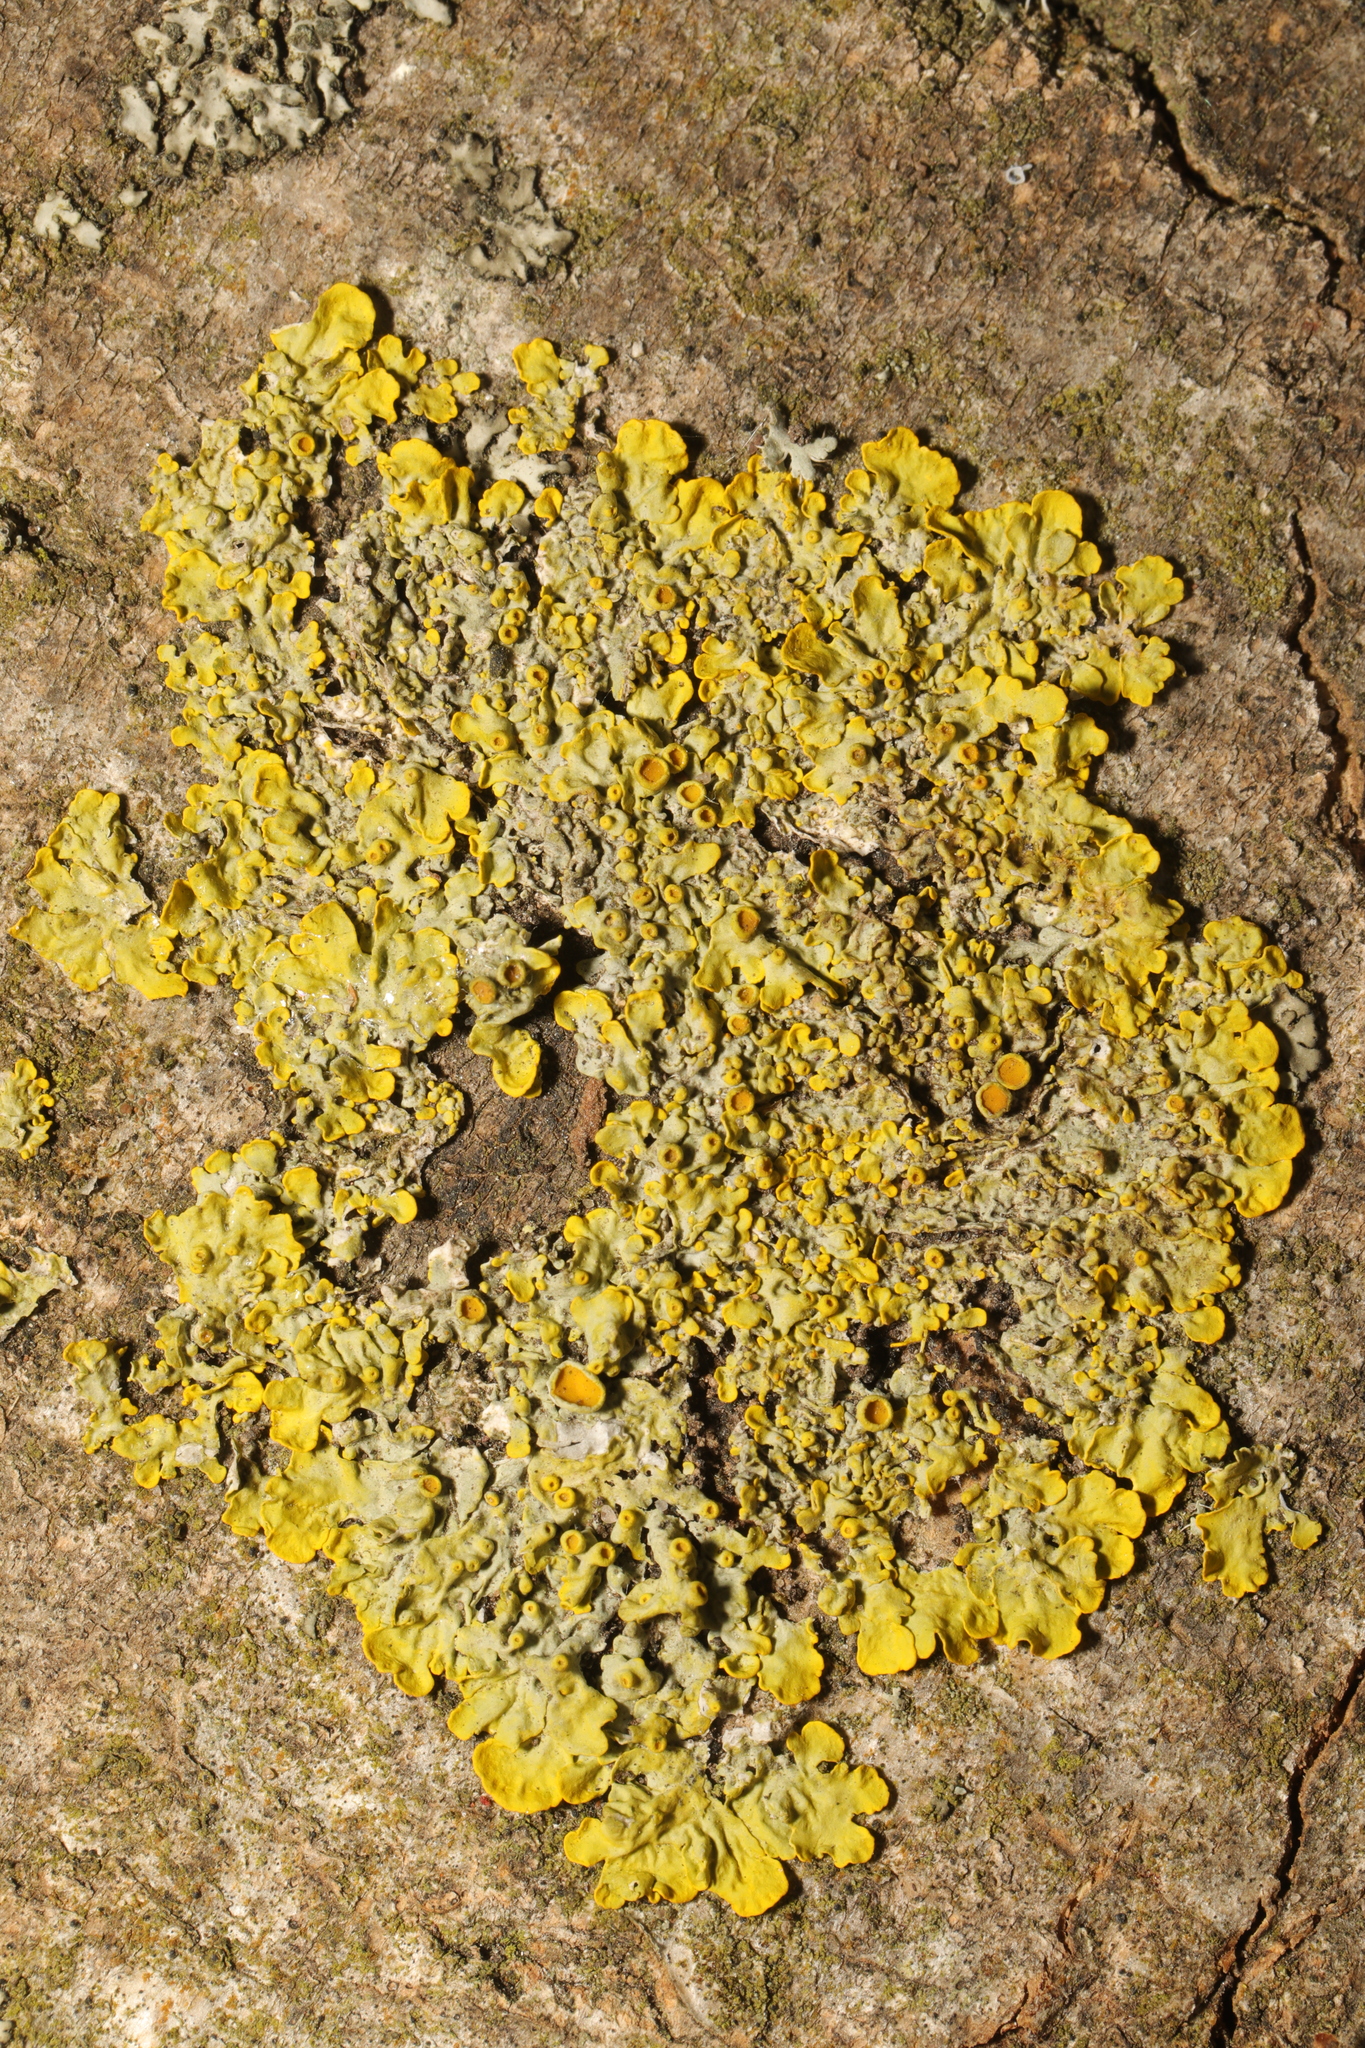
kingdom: Fungi
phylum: Ascomycota
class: Lecanoromycetes
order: Teloschistales
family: Teloschistaceae
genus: Xanthoria
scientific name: Xanthoria parietina
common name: Common orange lichen
